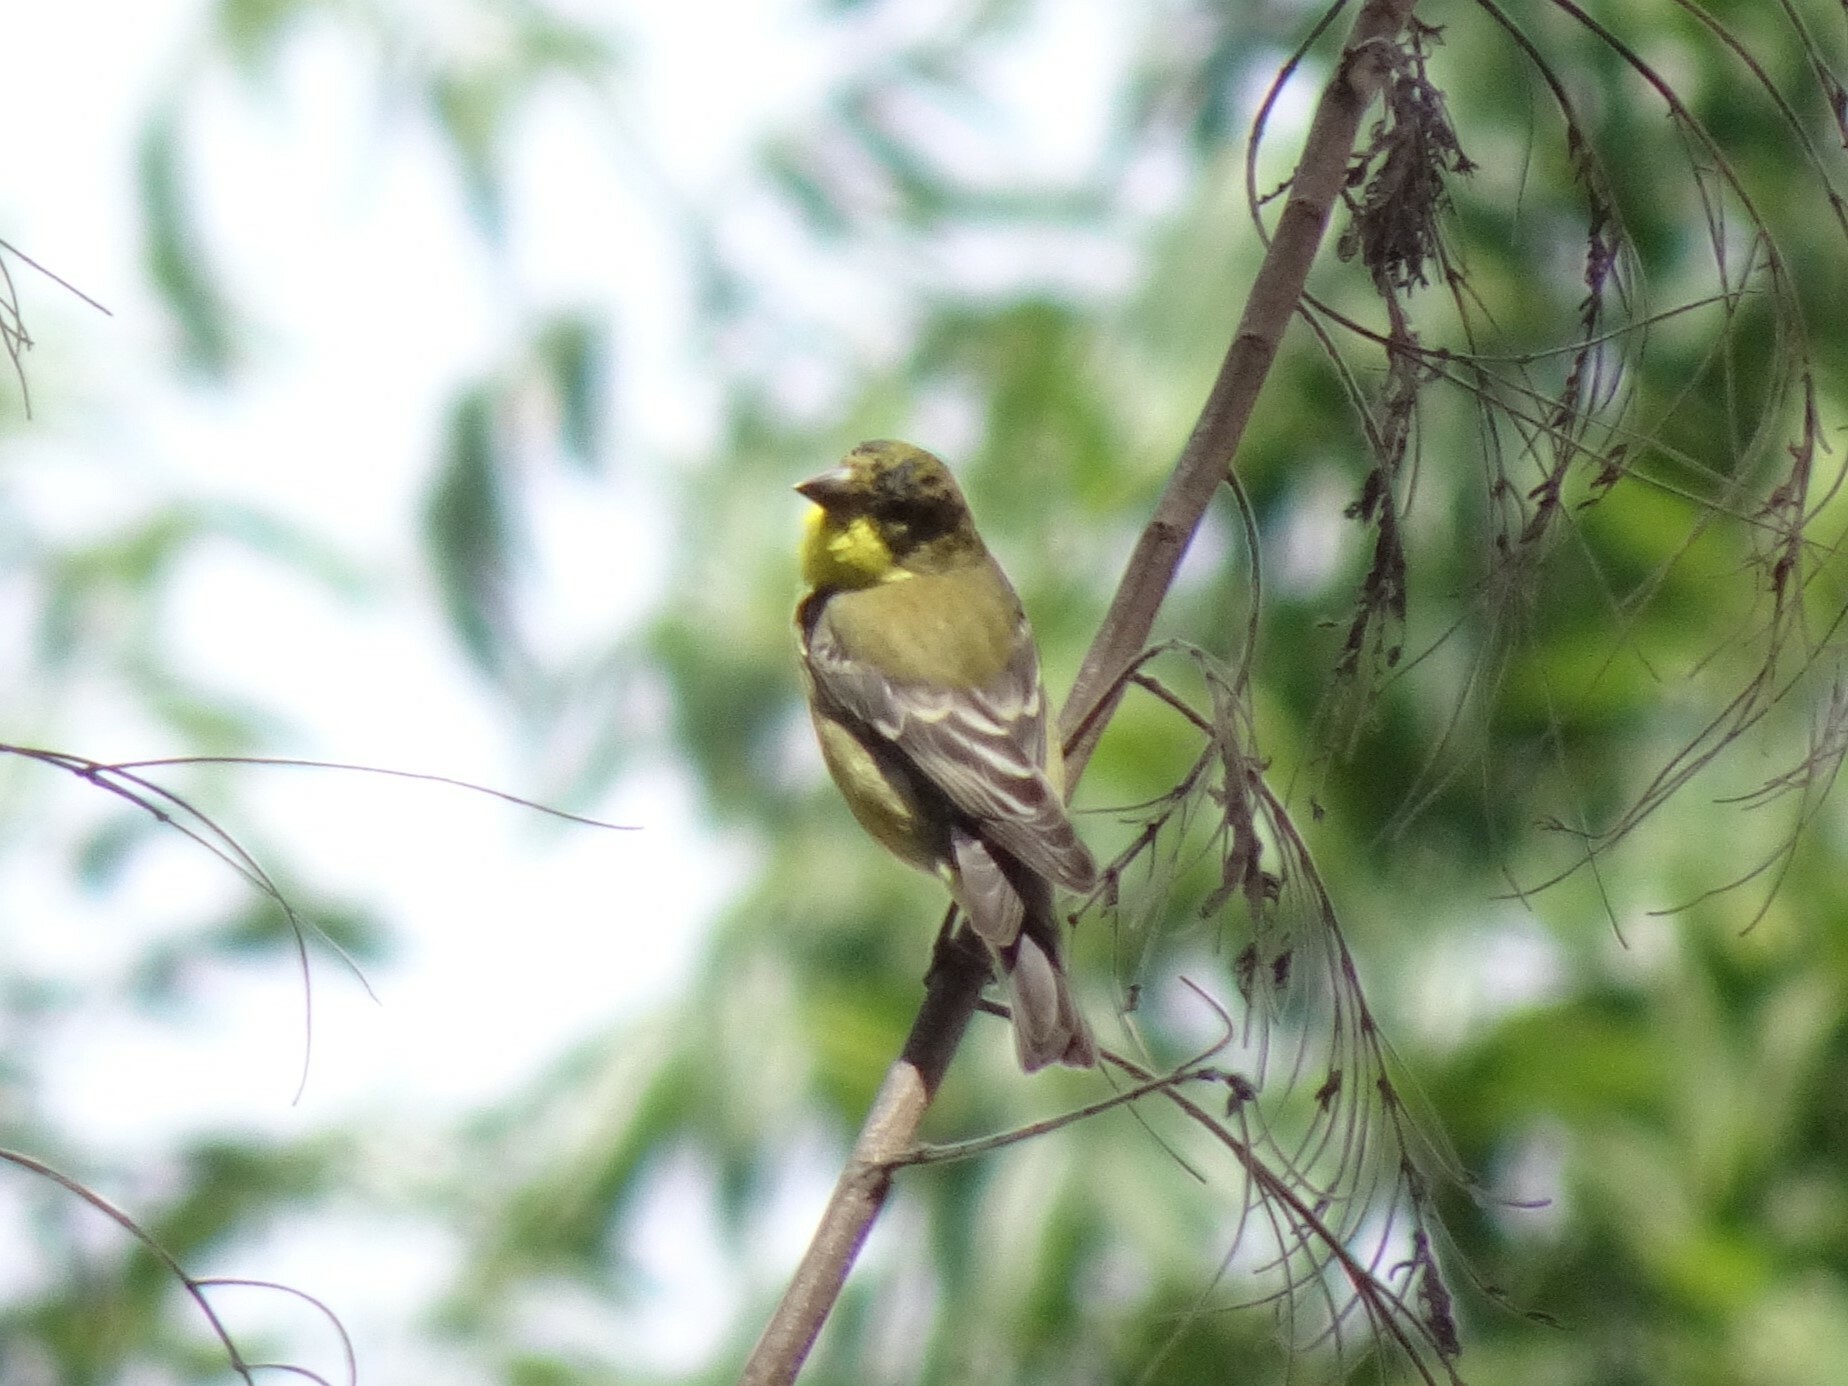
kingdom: Animalia
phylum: Chordata
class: Aves
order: Passeriformes
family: Fringillidae
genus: Spinus
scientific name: Spinus psaltria
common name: Lesser goldfinch
